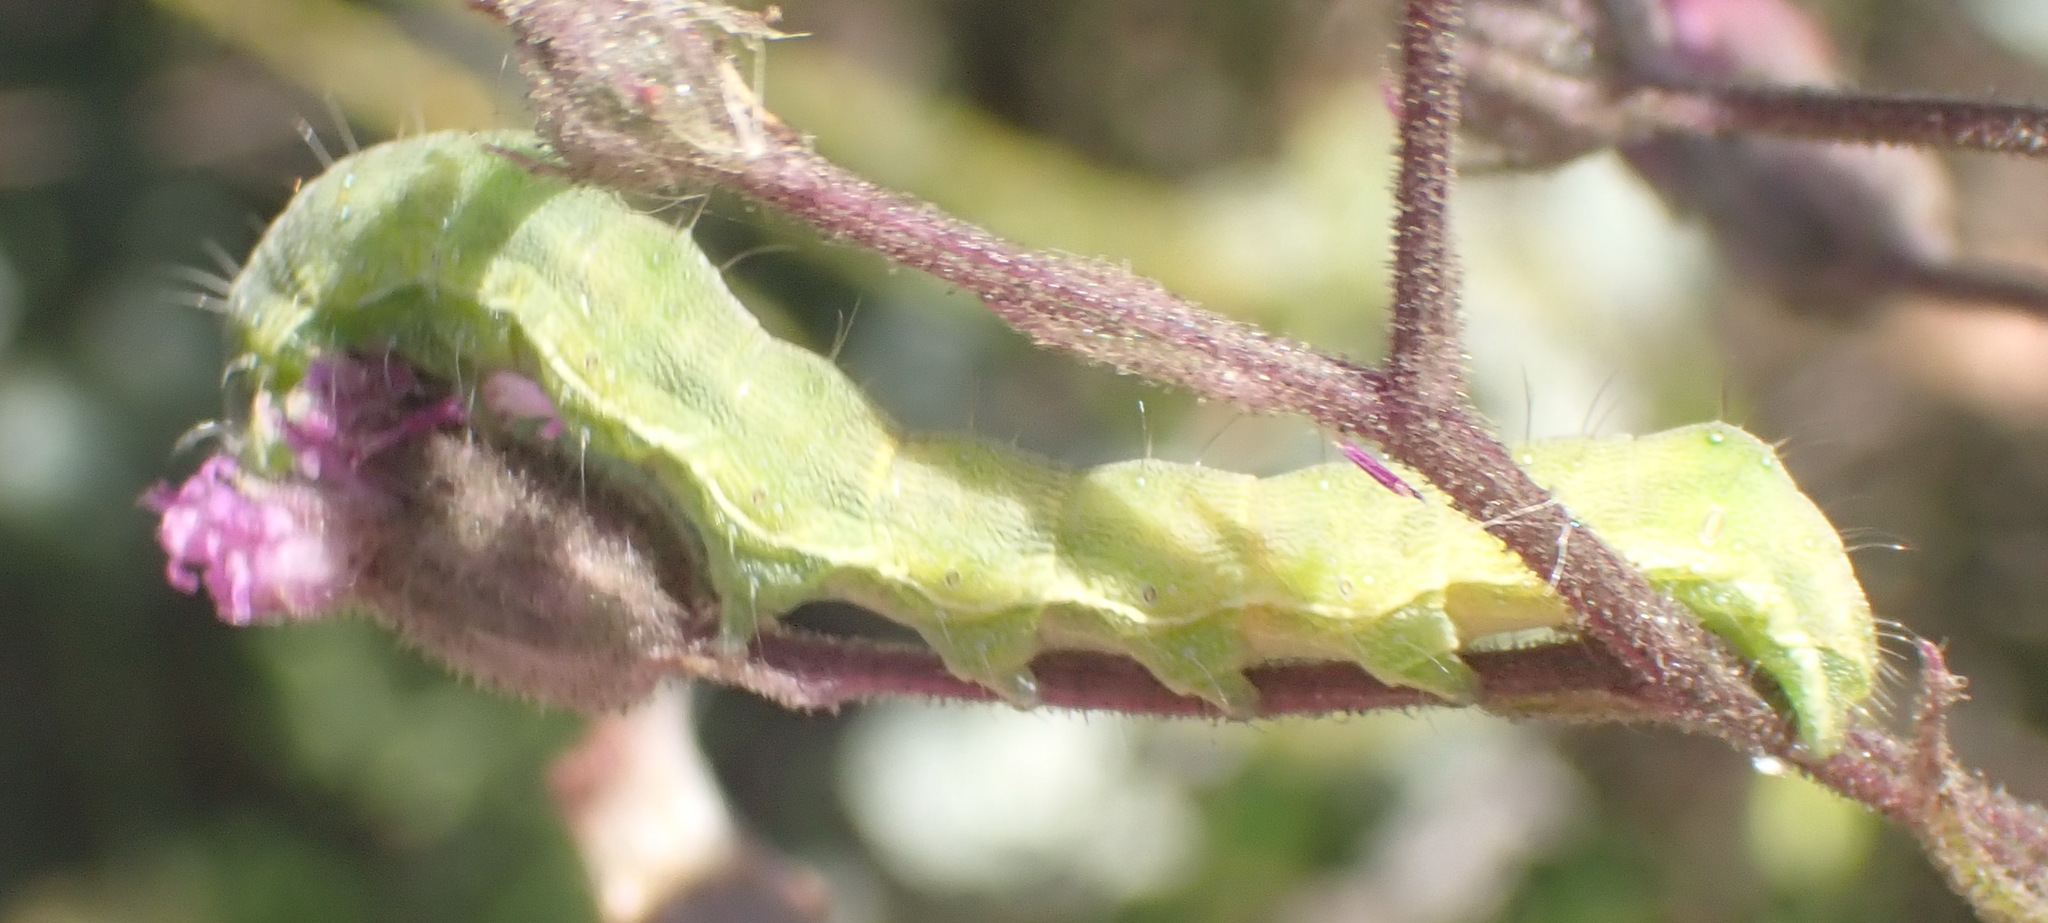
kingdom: Animalia
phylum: Arthropoda
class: Insecta
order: Lepidoptera
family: Noctuidae
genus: Helicoverpa
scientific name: Helicoverpa armigera
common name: Cotton bollworm
